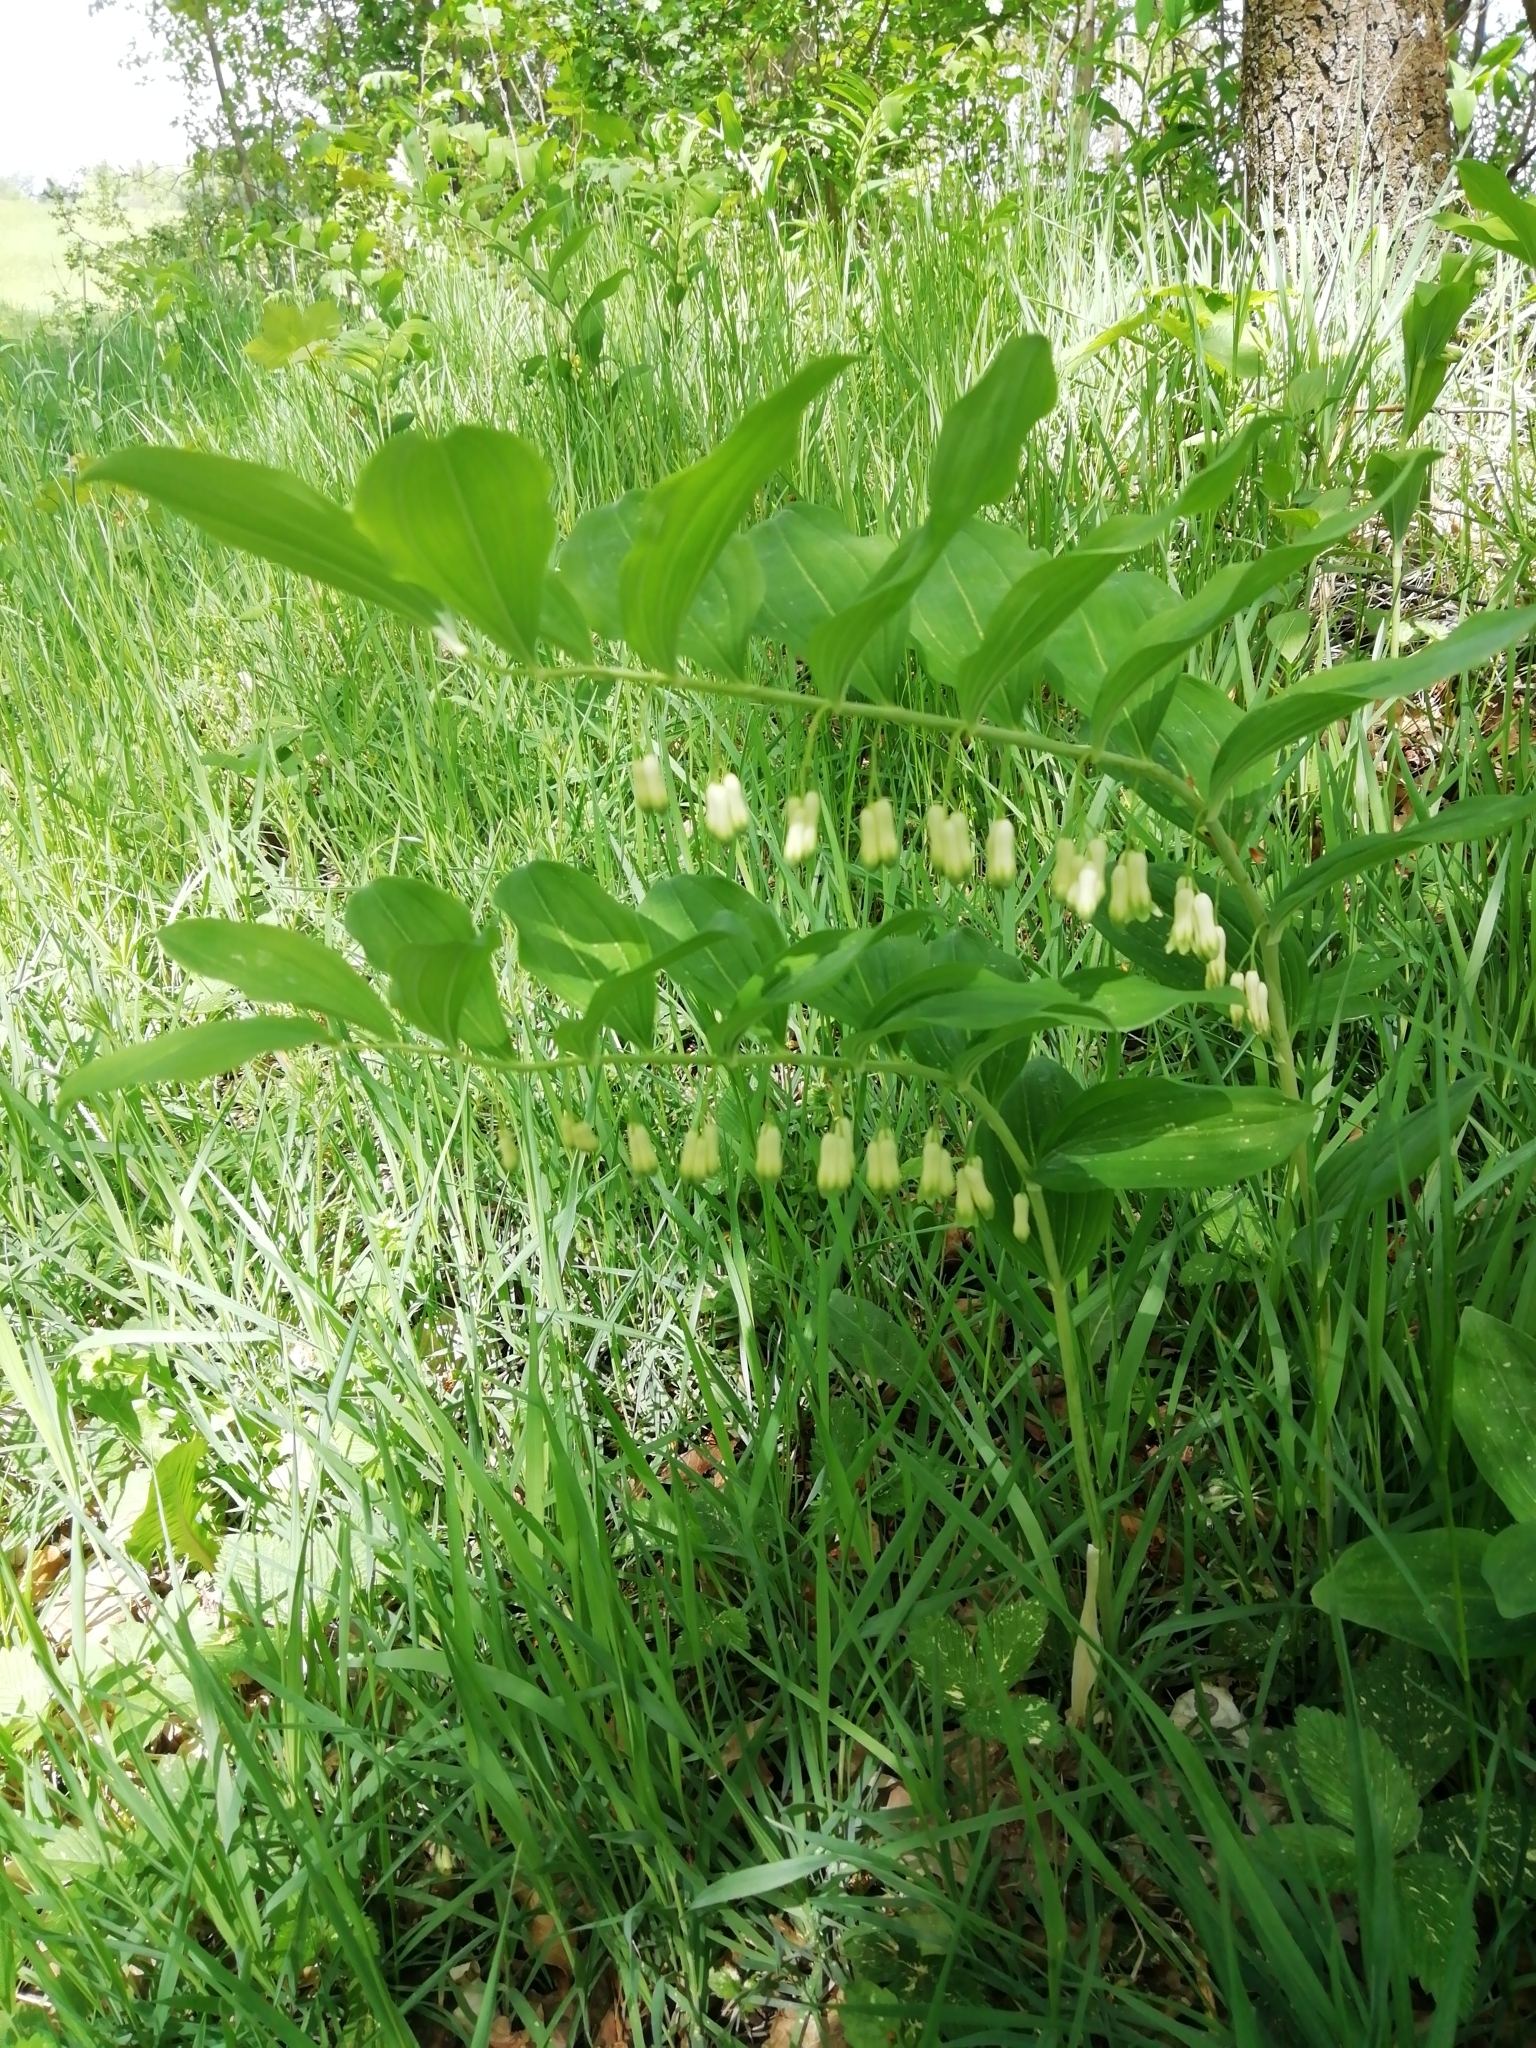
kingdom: Plantae
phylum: Tracheophyta
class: Liliopsida
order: Asparagales
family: Asparagaceae
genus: Polygonatum
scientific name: Polygonatum multiflorum
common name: Solomon's-seal
